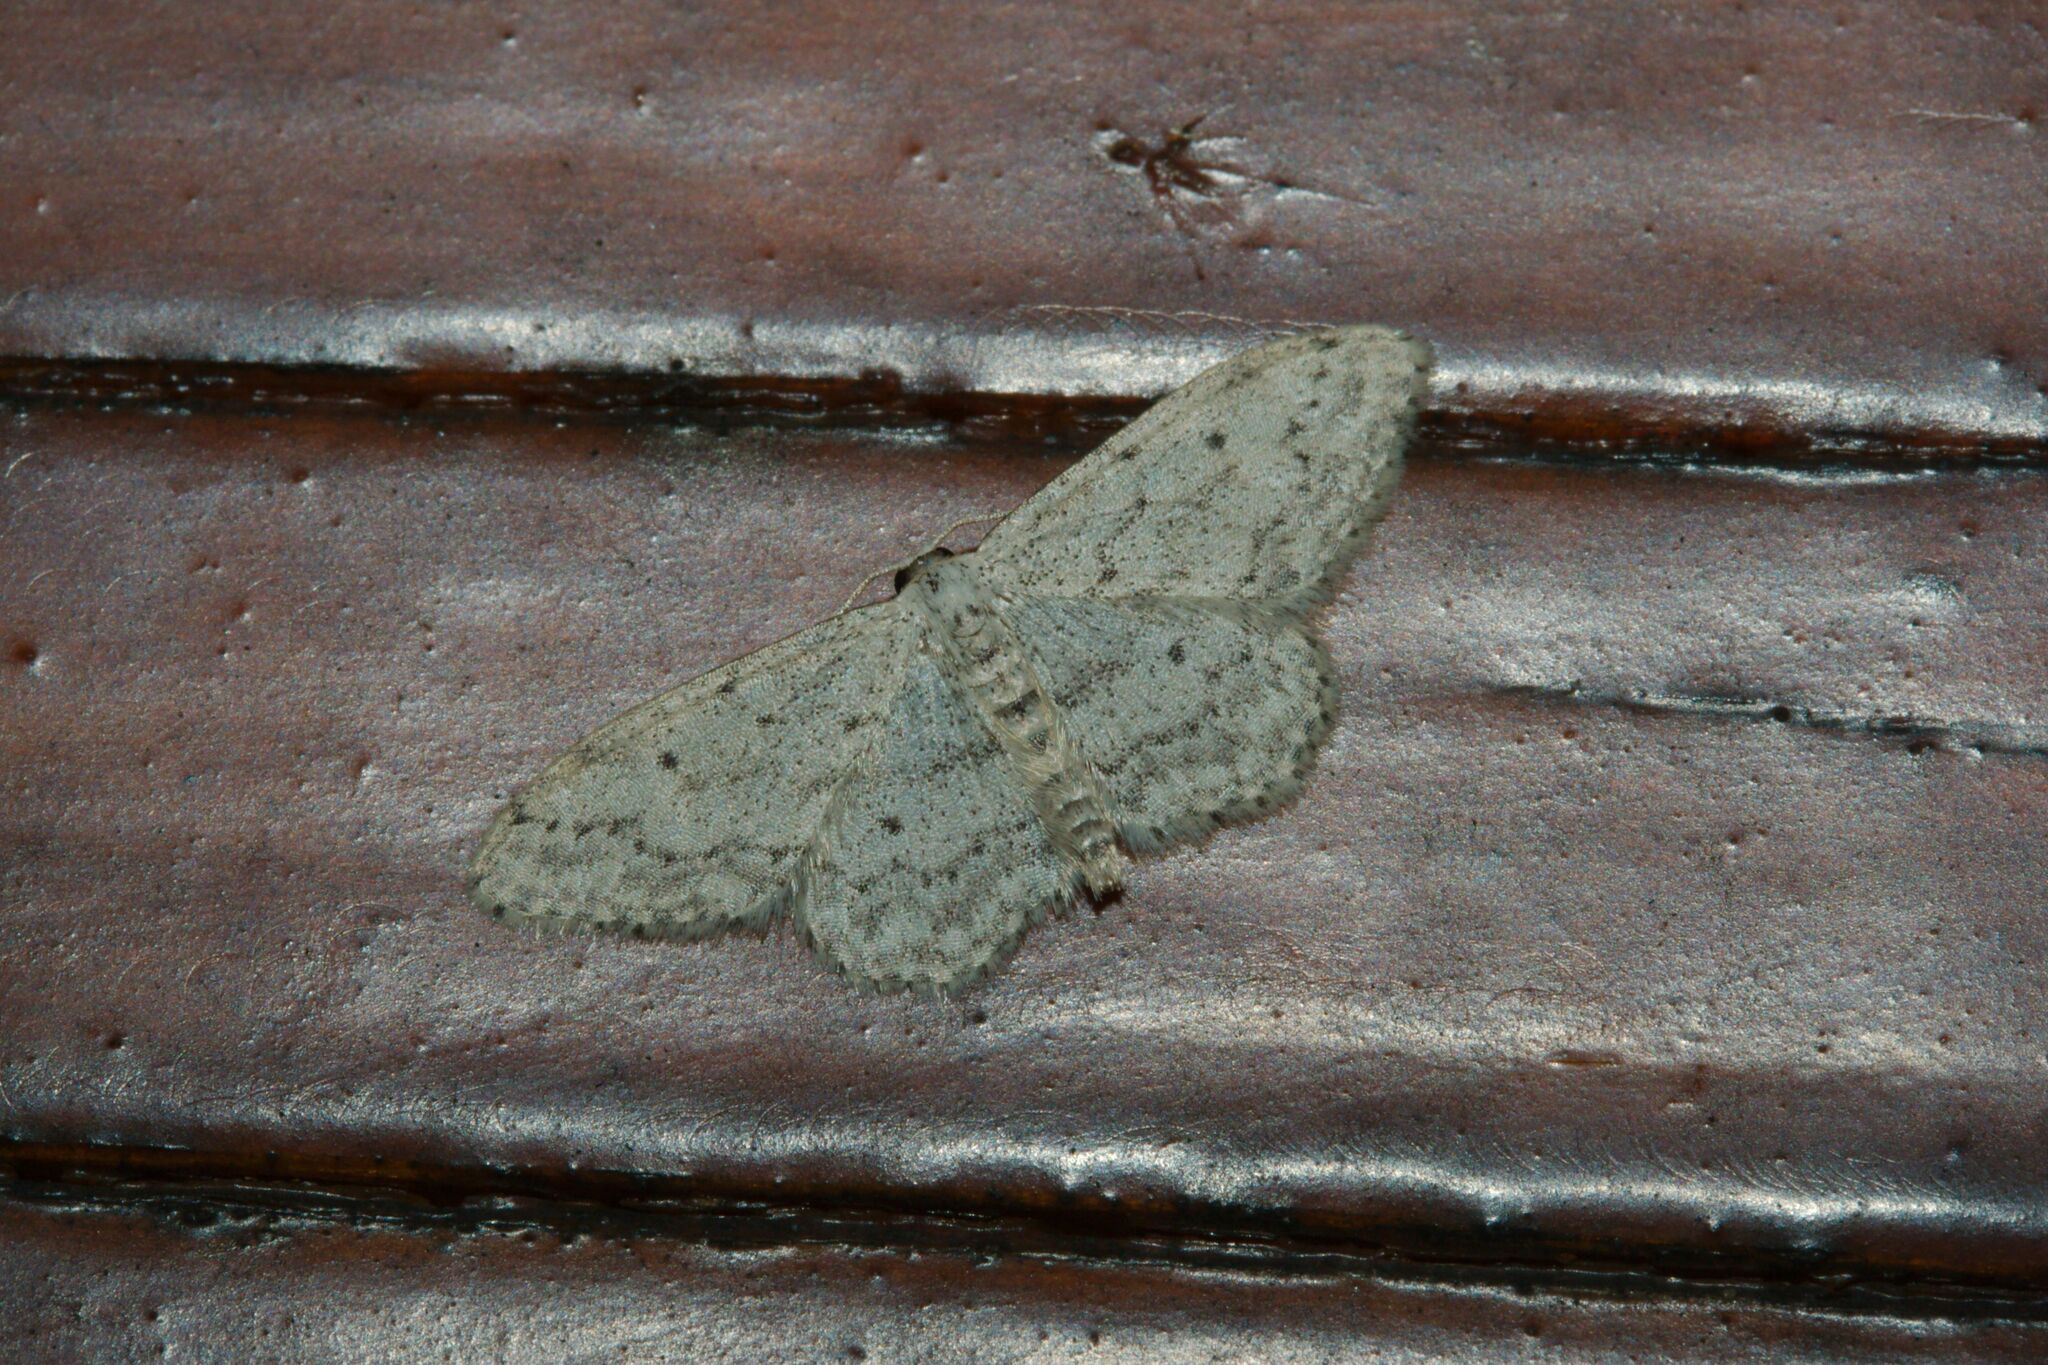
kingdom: Animalia
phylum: Arthropoda
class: Insecta
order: Lepidoptera
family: Geometridae
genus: Idaea
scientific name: Idaea seriata
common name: Small dusty wave
